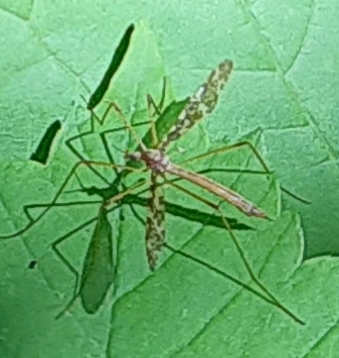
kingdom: Animalia
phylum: Arthropoda
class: Insecta
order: Diptera
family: Limoniidae
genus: Epiphragma
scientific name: Epiphragma fasciapenne
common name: Band-winged crane fly
